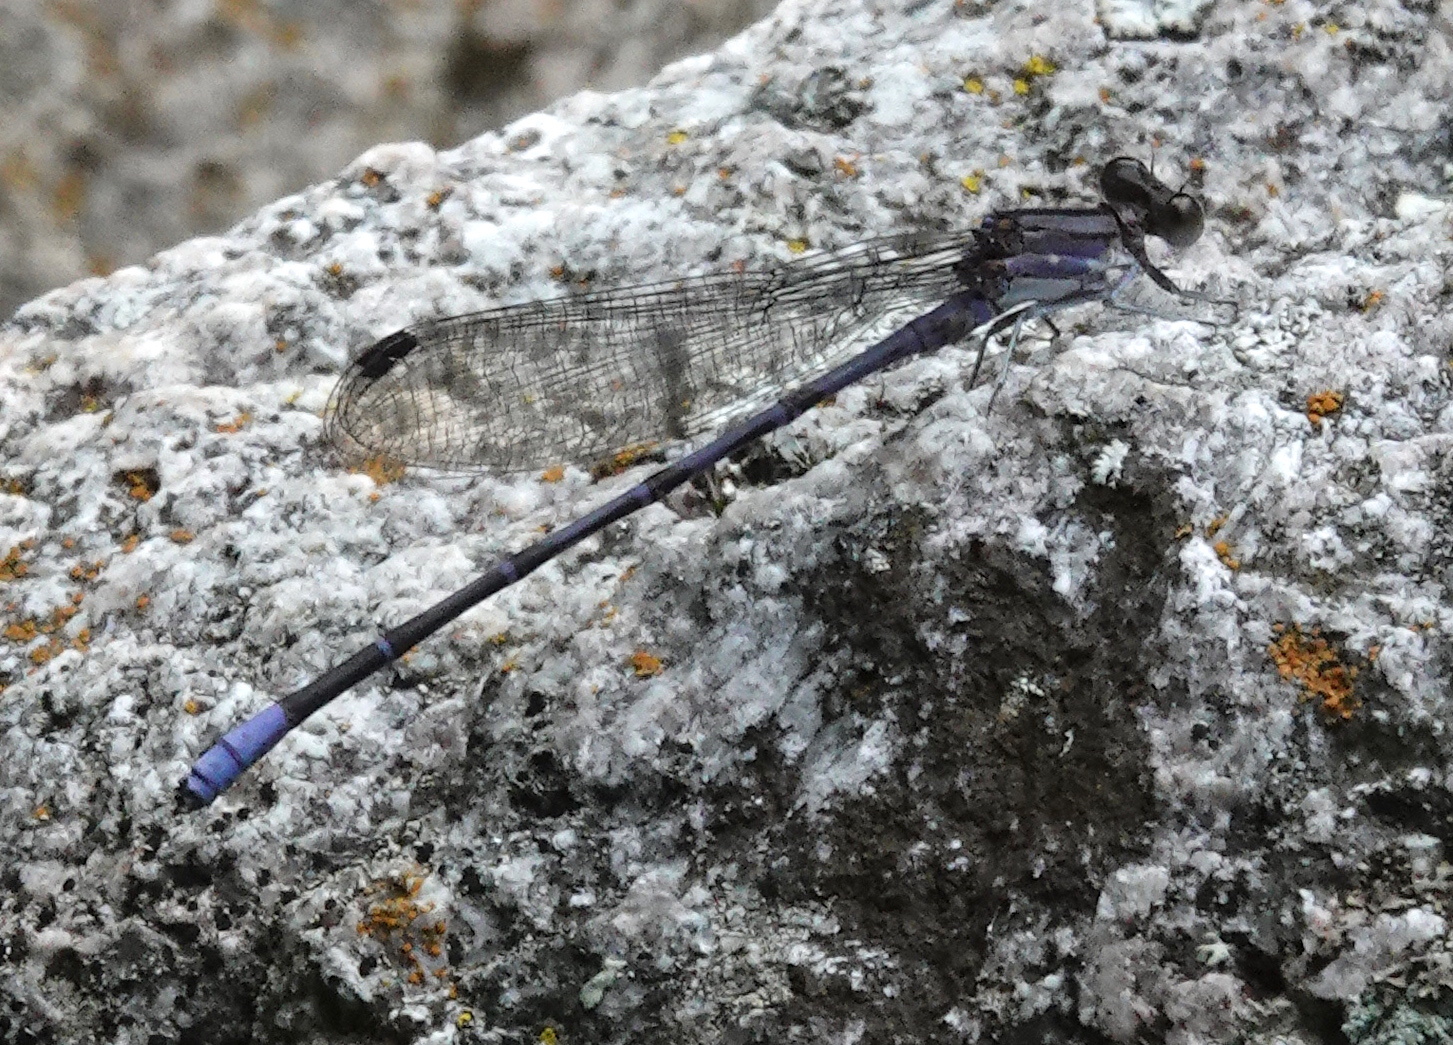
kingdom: Animalia
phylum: Arthropoda
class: Insecta
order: Odonata
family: Coenagrionidae
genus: Argia
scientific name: Argia funebris
